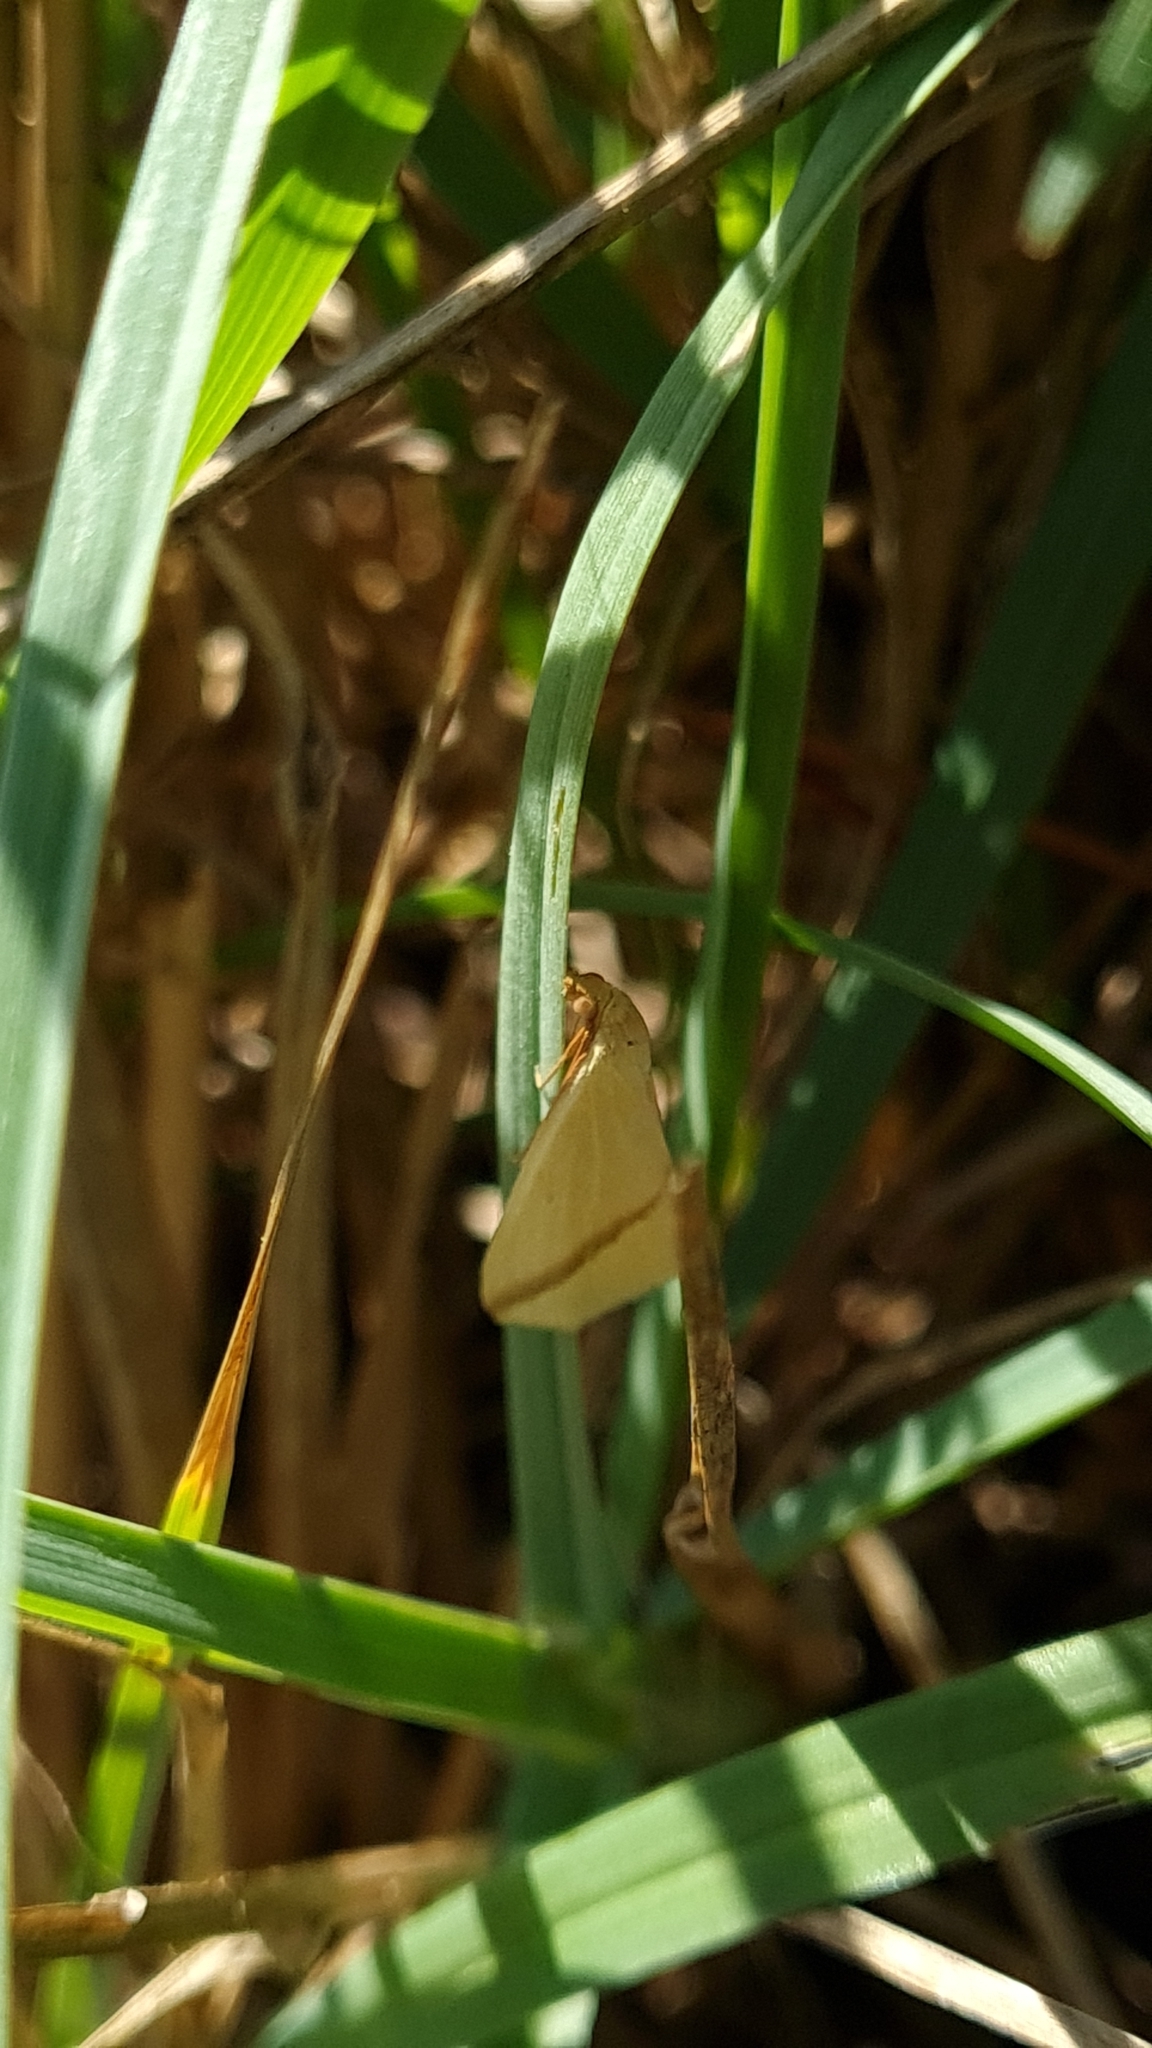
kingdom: Animalia
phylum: Arthropoda
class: Insecta
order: Lepidoptera
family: Geometridae
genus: Rhodometra
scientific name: Rhodometra sacraria
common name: Vestal
